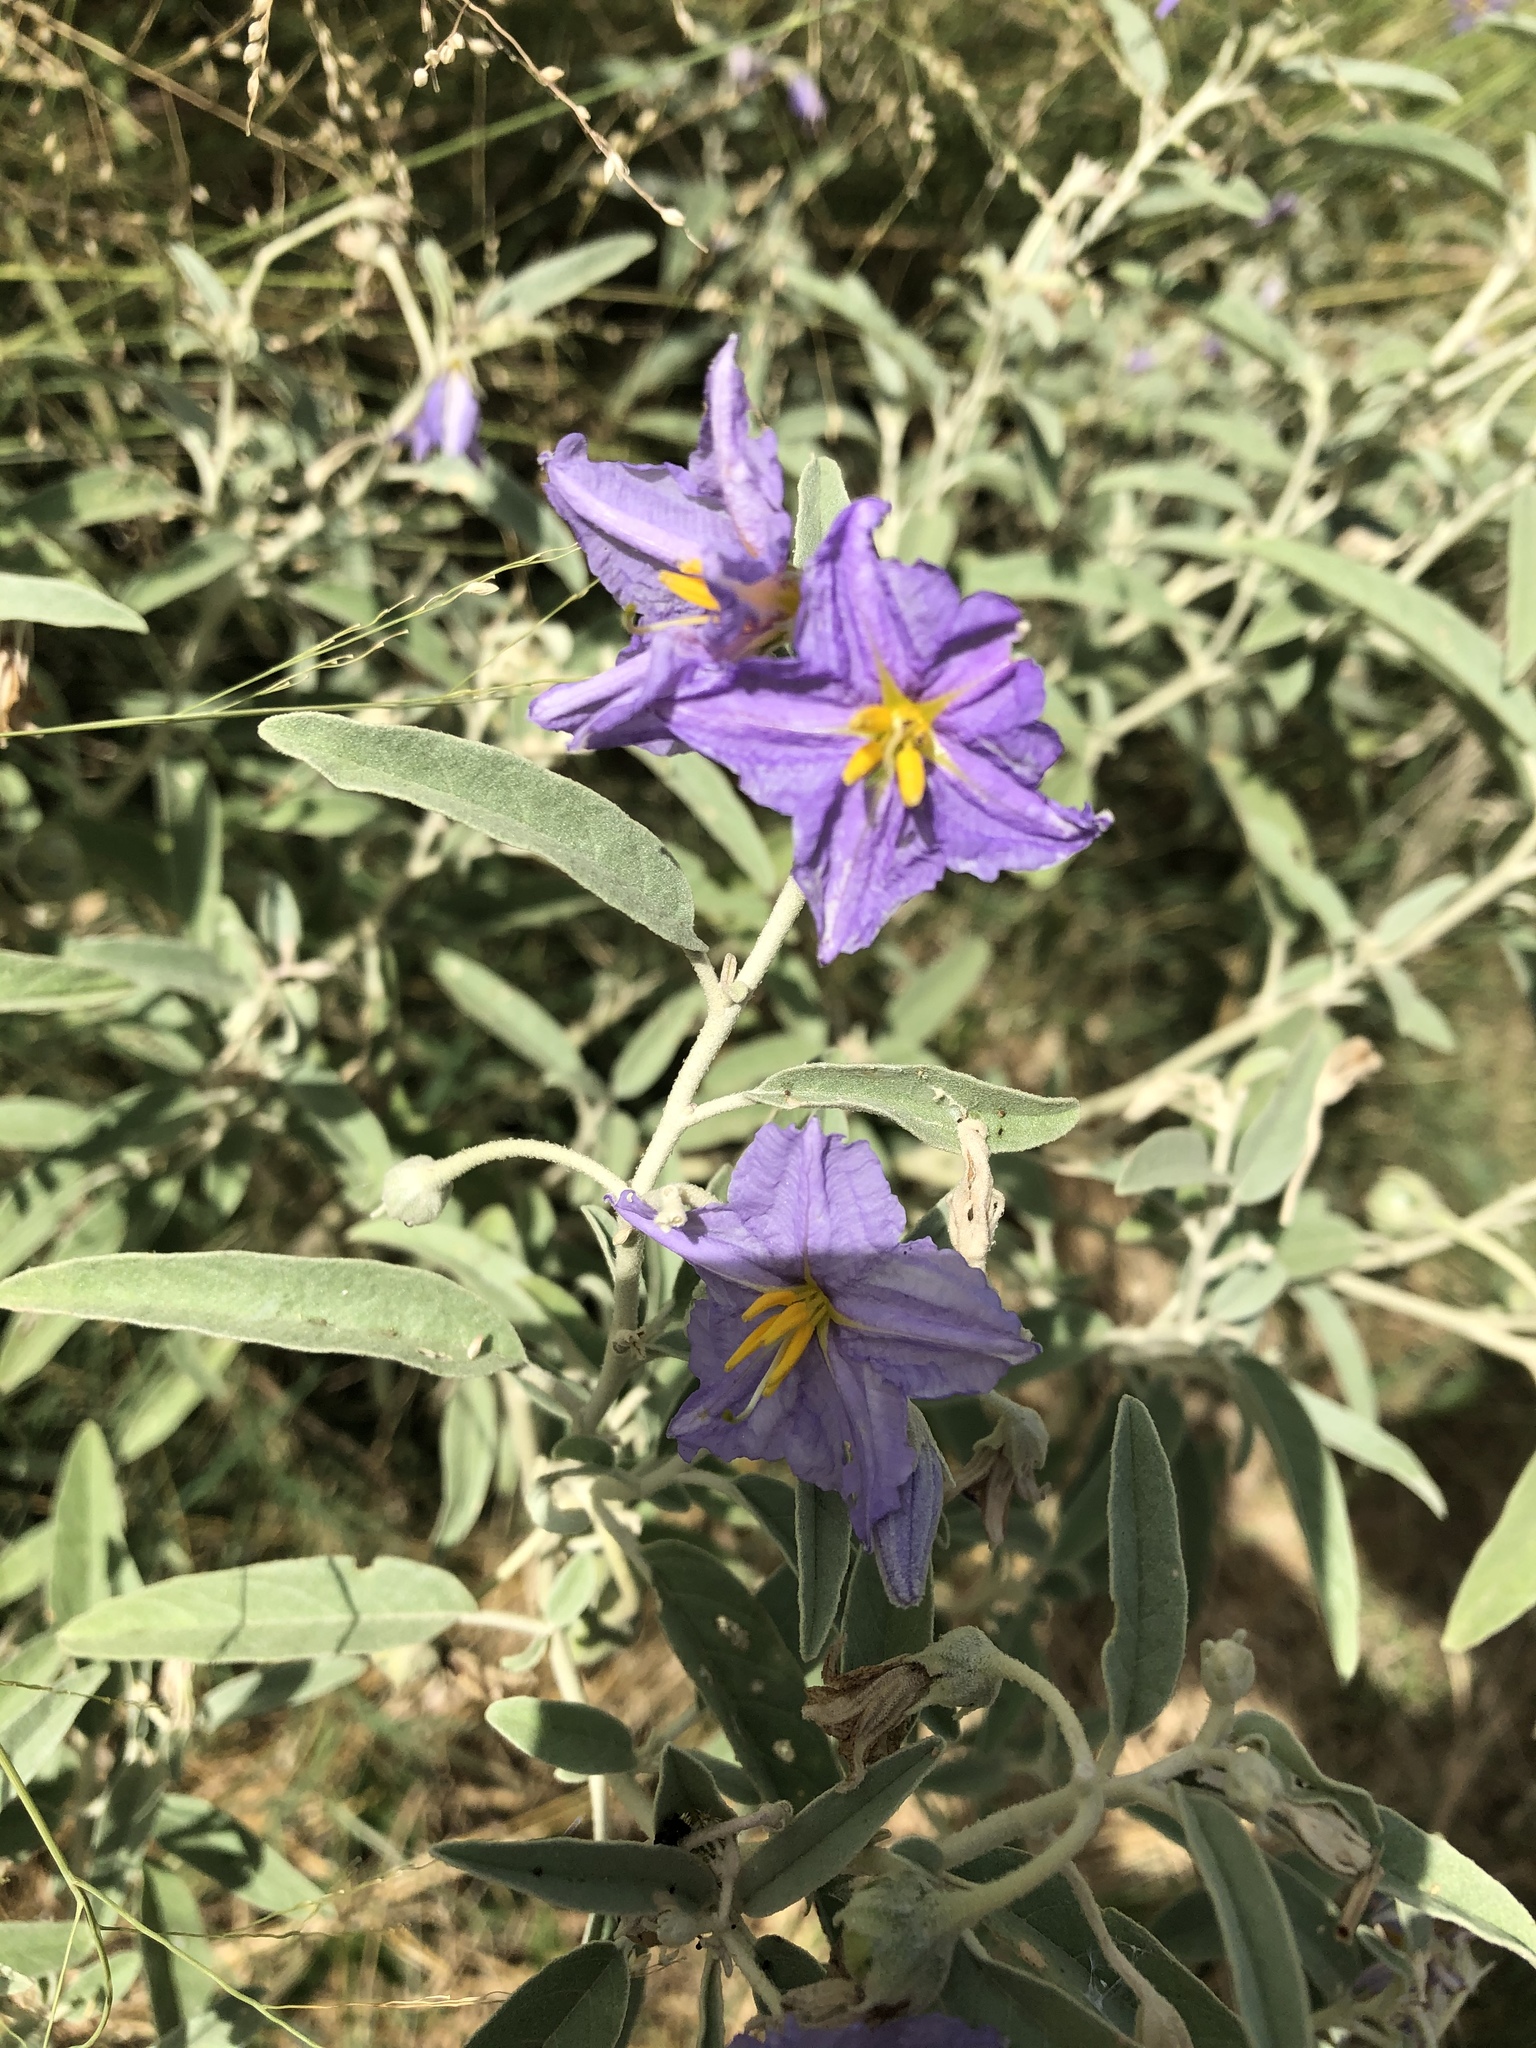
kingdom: Plantae
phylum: Tracheophyta
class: Magnoliopsida
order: Solanales
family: Solanaceae
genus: Solanum
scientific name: Solanum elaeagnifolium
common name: Silverleaf nightshade
